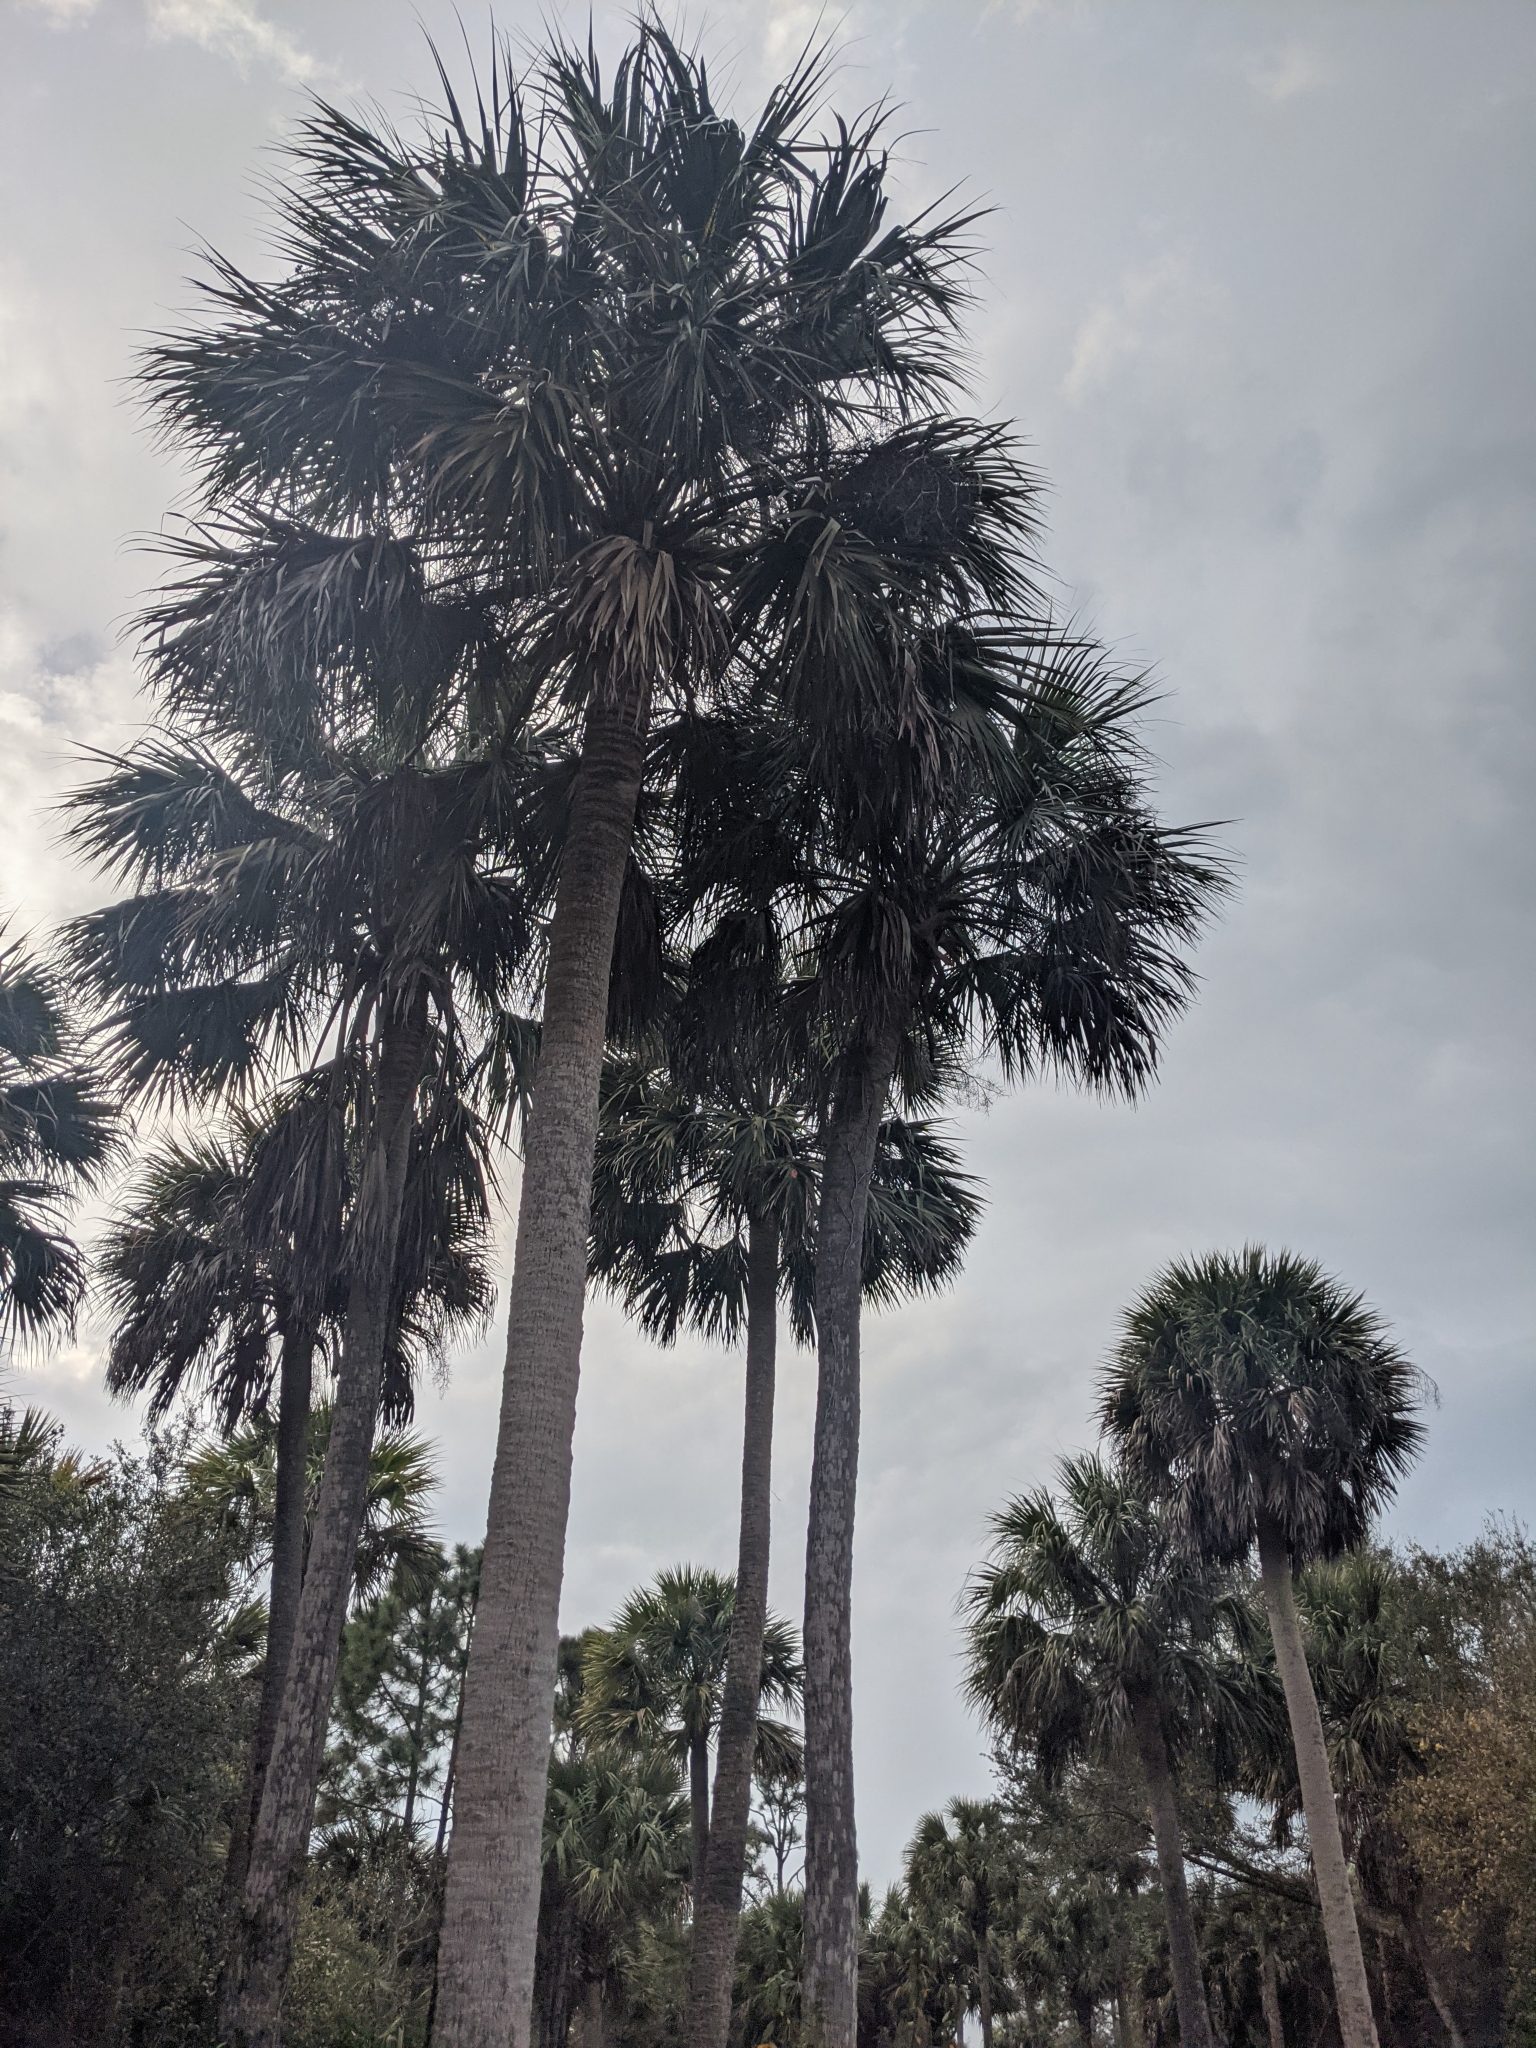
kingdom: Plantae
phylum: Tracheophyta
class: Liliopsida
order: Arecales
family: Arecaceae
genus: Sabal
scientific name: Sabal palmetto
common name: Blue palmetto
